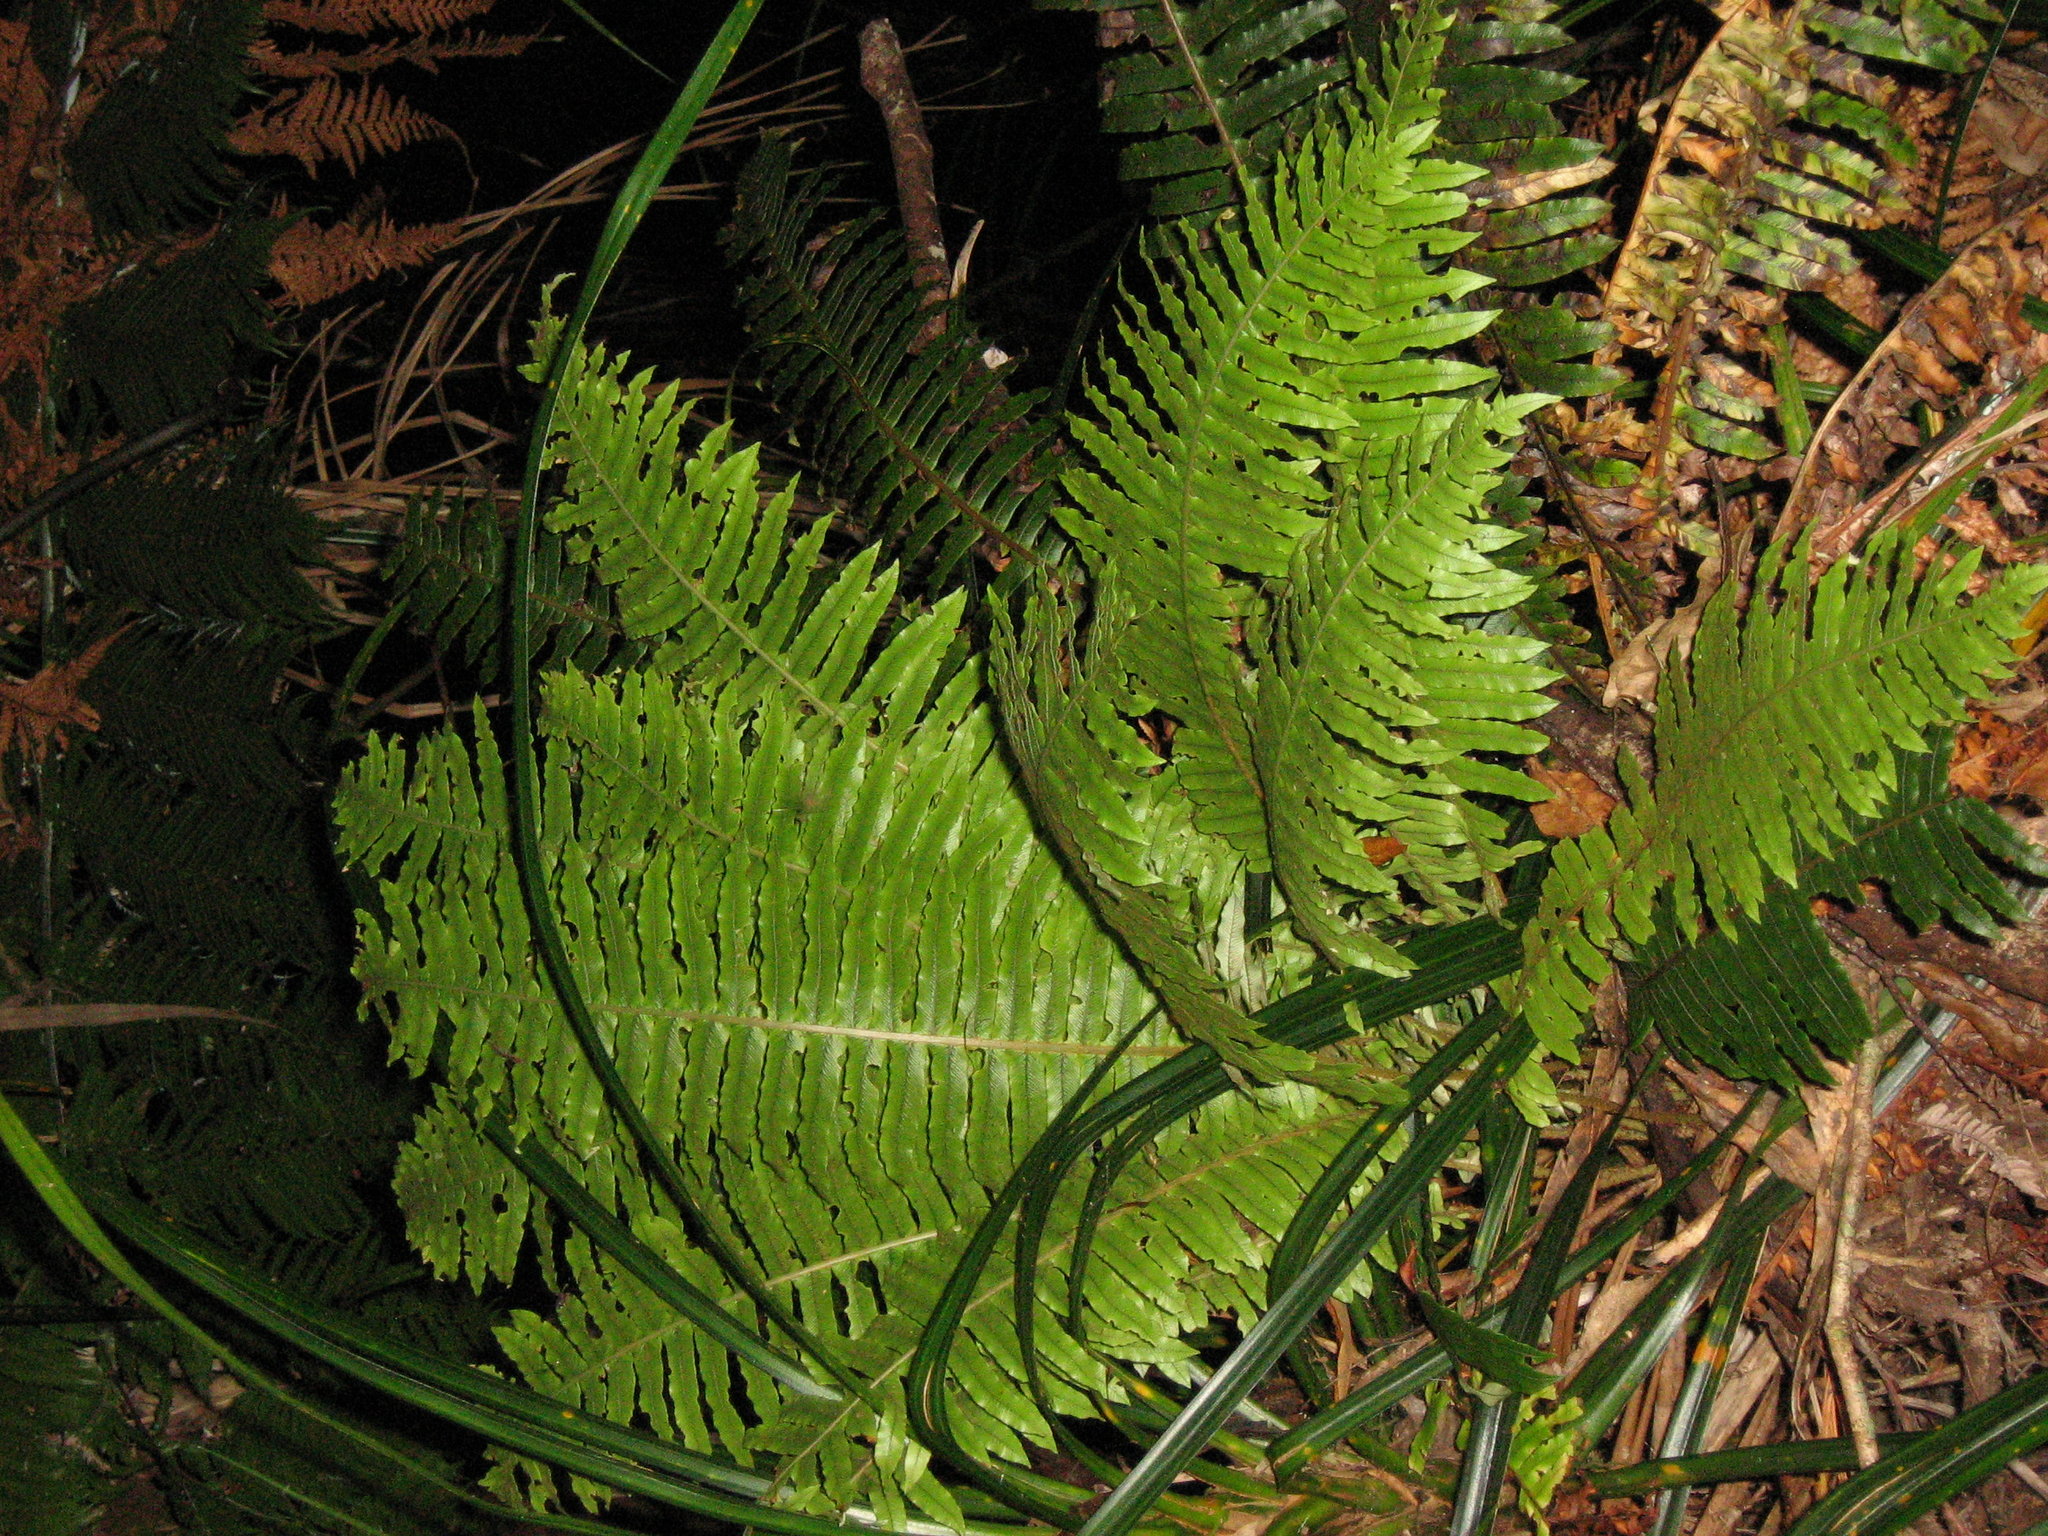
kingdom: Plantae
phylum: Tracheophyta
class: Polypodiopsida
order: Polypodiales
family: Blechnaceae
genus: Lomaria
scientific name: Lomaria discolor
